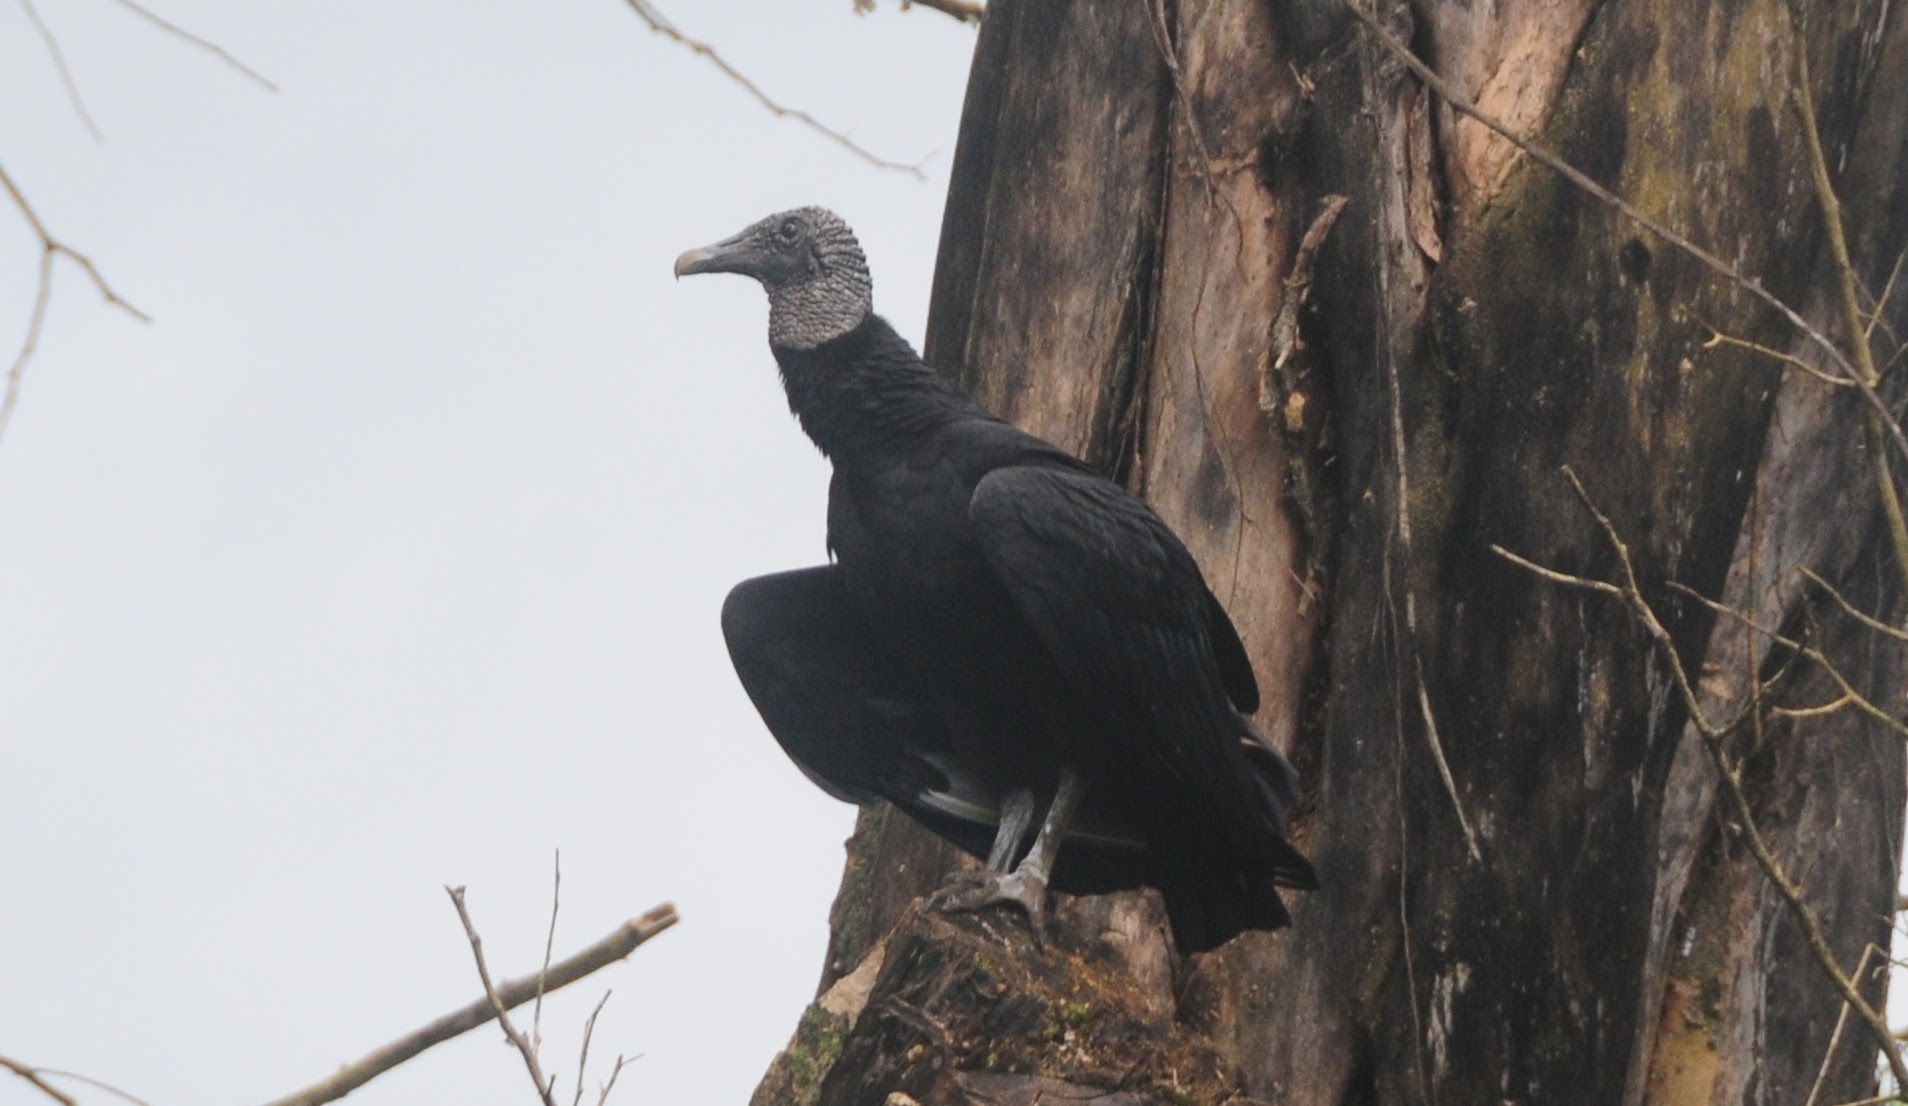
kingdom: Animalia
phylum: Chordata
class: Aves
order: Accipitriformes
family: Cathartidae
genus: Coragyps
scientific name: Coragyps atratus
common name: Black vulture
